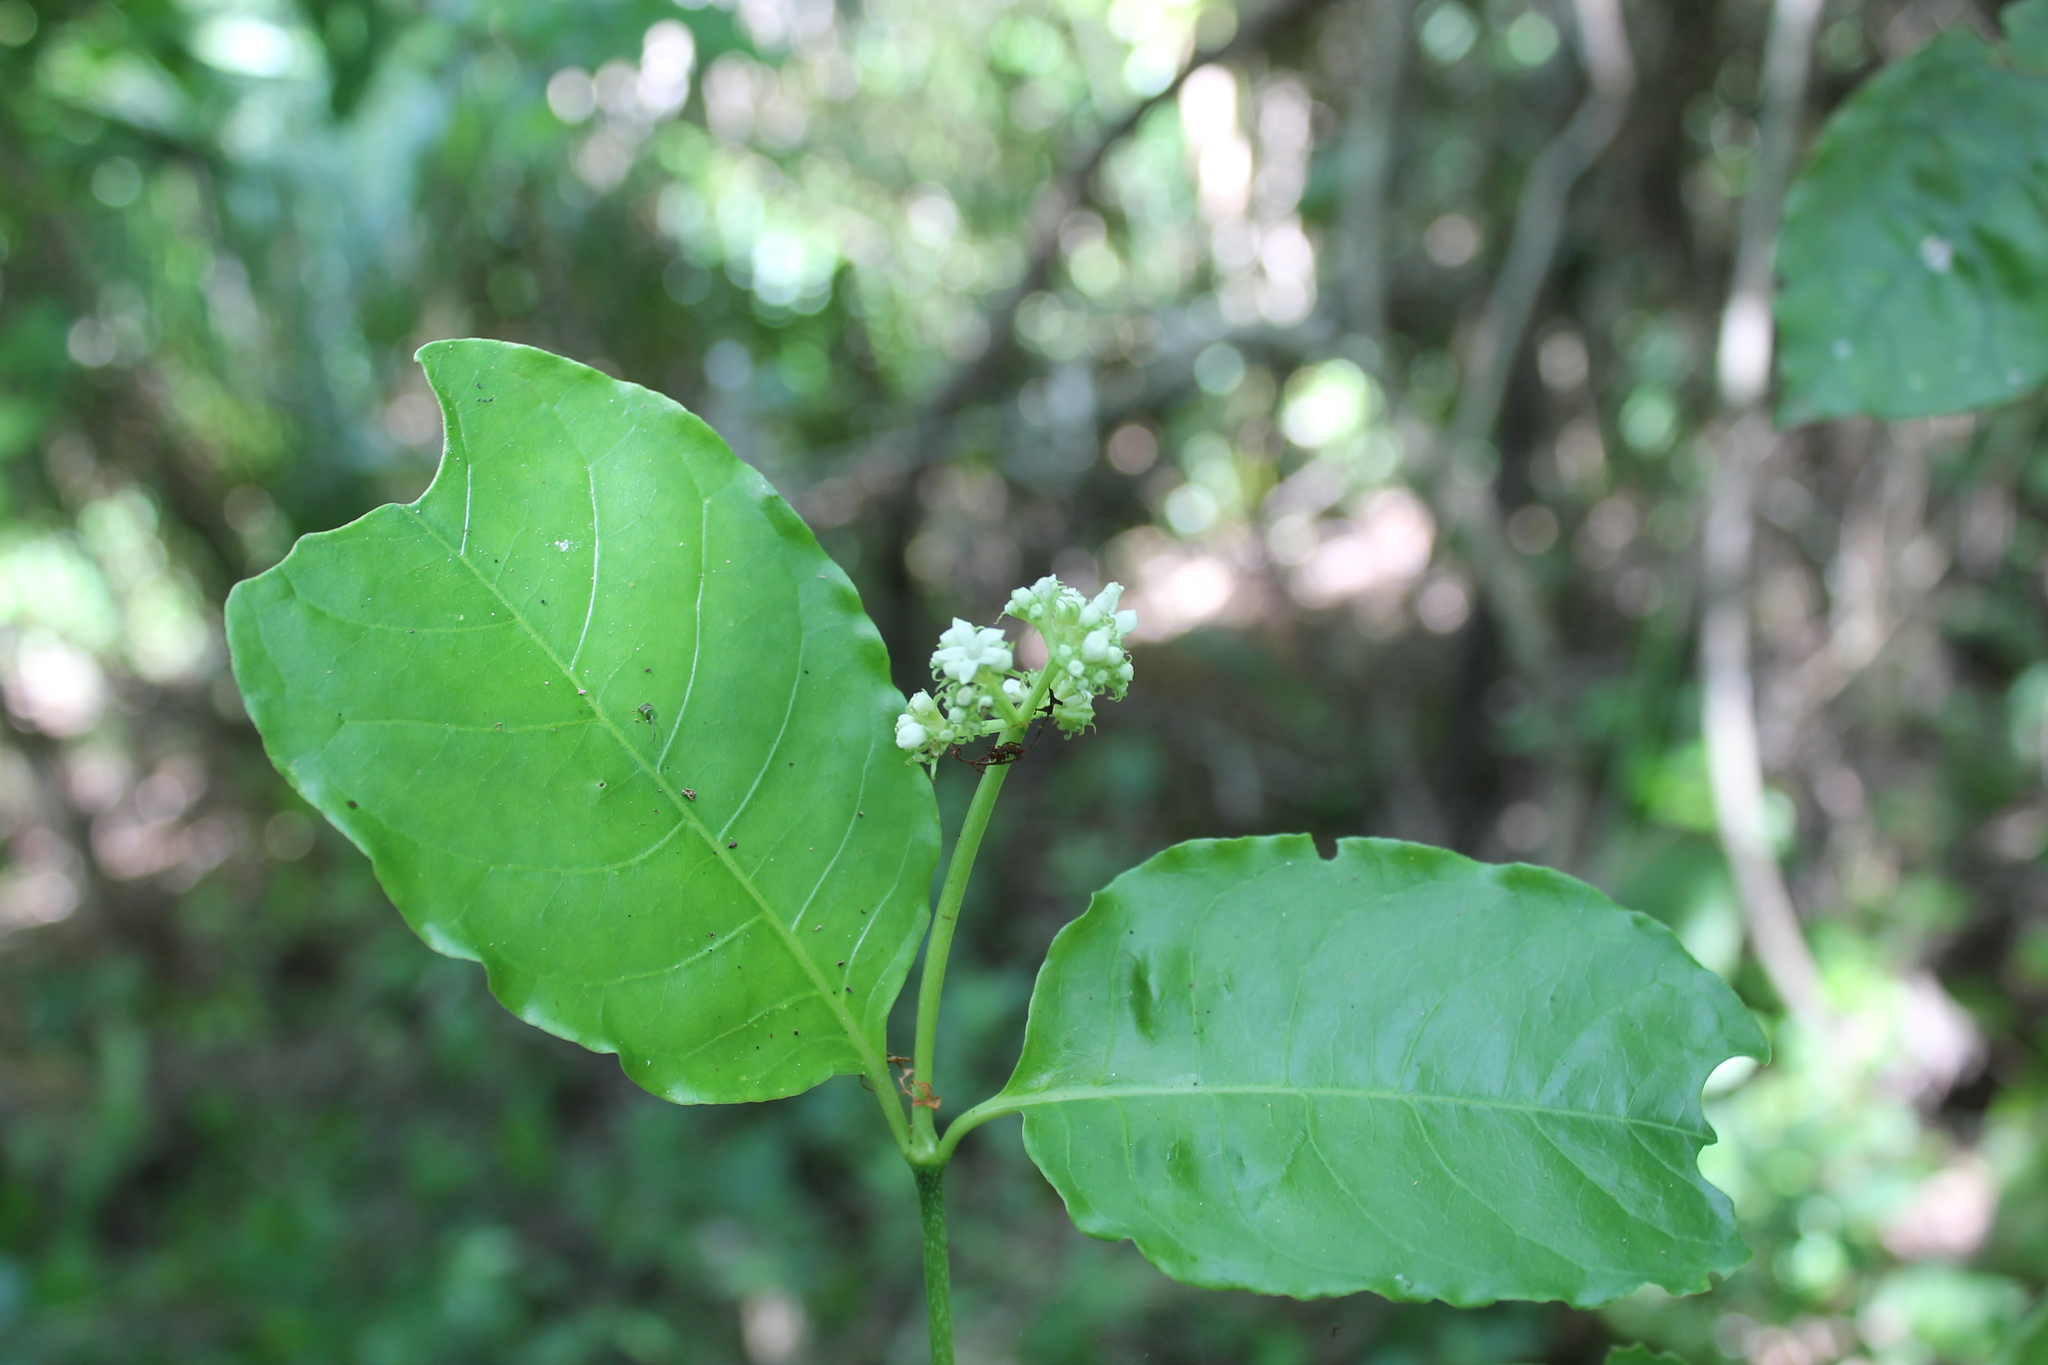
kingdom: Plantae
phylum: Tracheophyta
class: Magnoliopsida
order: Gentianales
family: Rubiaceae
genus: Psychotria
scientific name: Psychotria horizontalis
